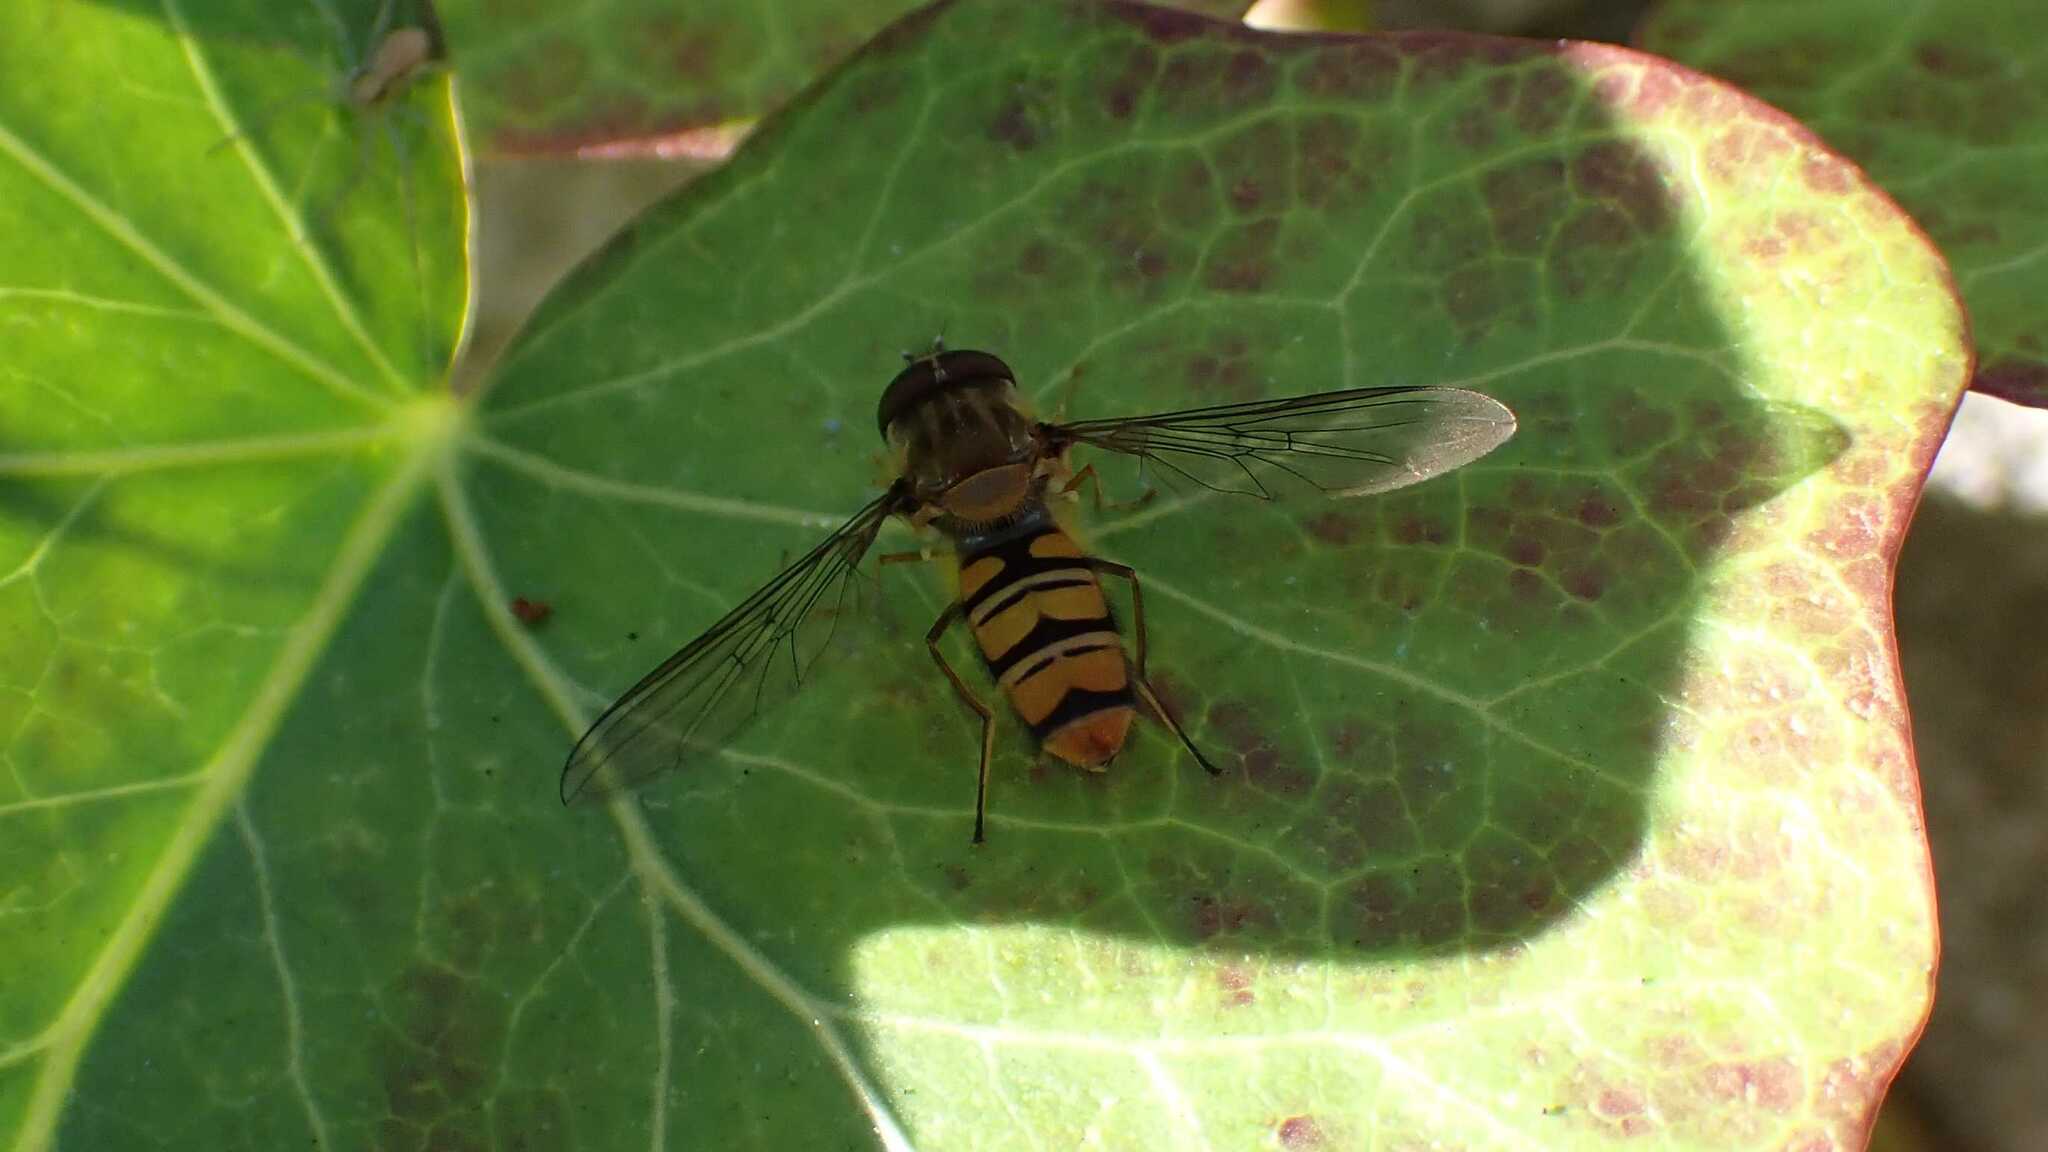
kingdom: Animalia
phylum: Arthropoda
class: Insecta
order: Diptera
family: Syrphidae
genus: Episyrphus
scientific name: Episyrphus balteatus
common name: Marmalade hoverfly
